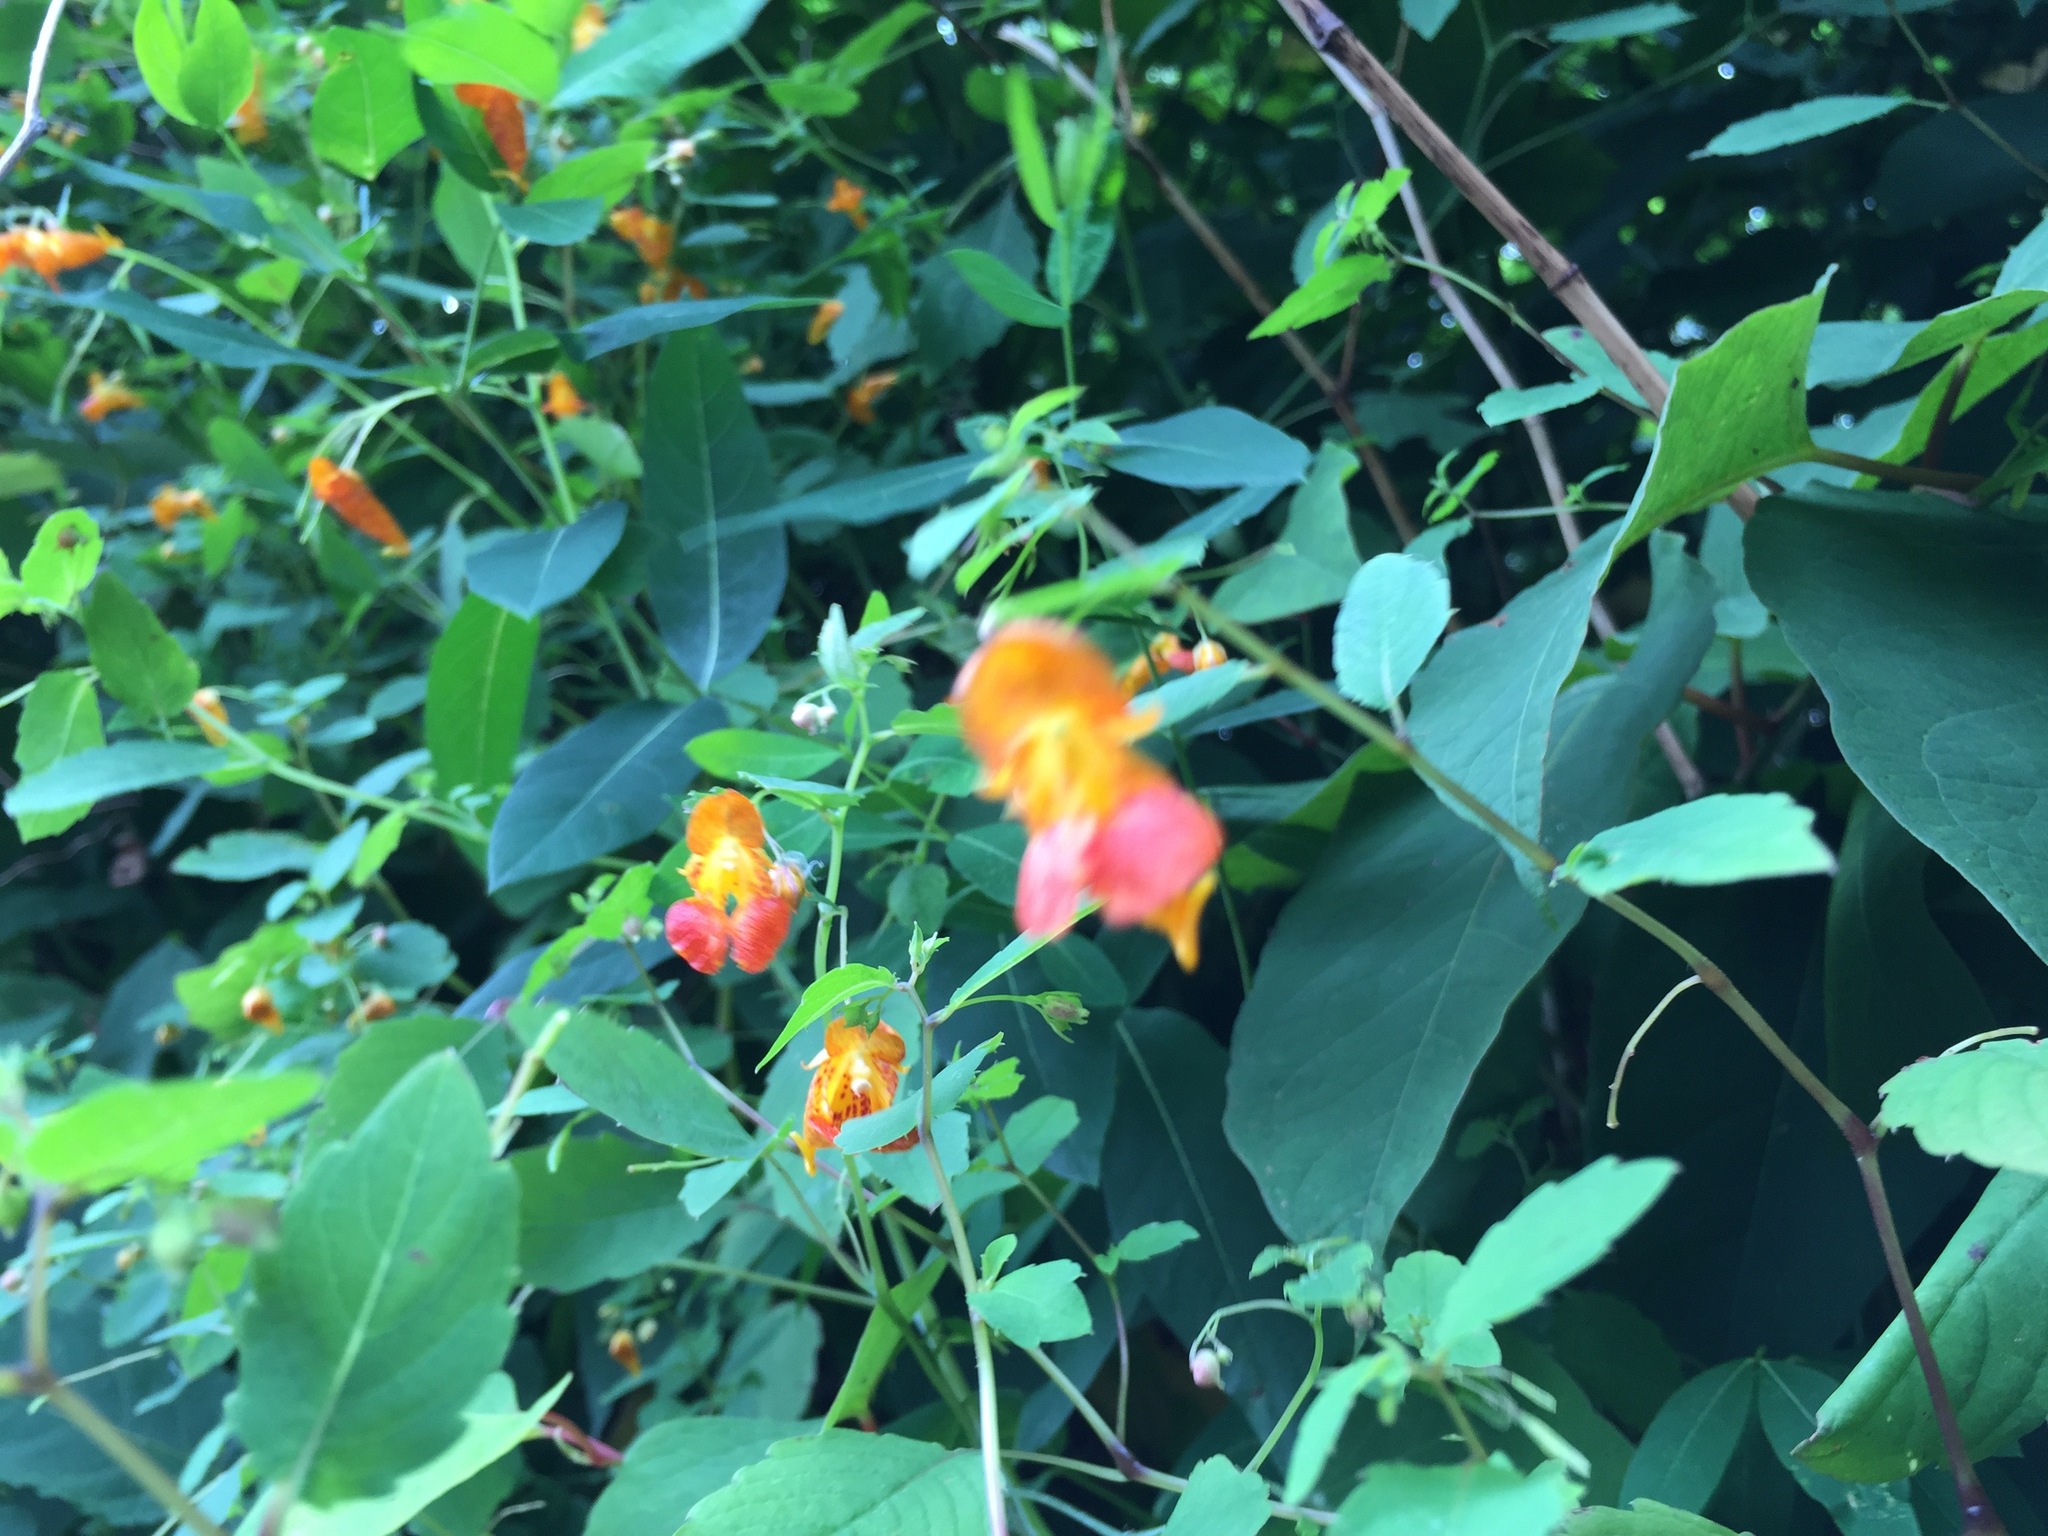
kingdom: Plantae
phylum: Tracheophyta
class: Magnoliopsida
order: Ericales
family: Balsaminaceae
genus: Impatiens
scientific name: Impatiens capensis
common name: Orange balsam
